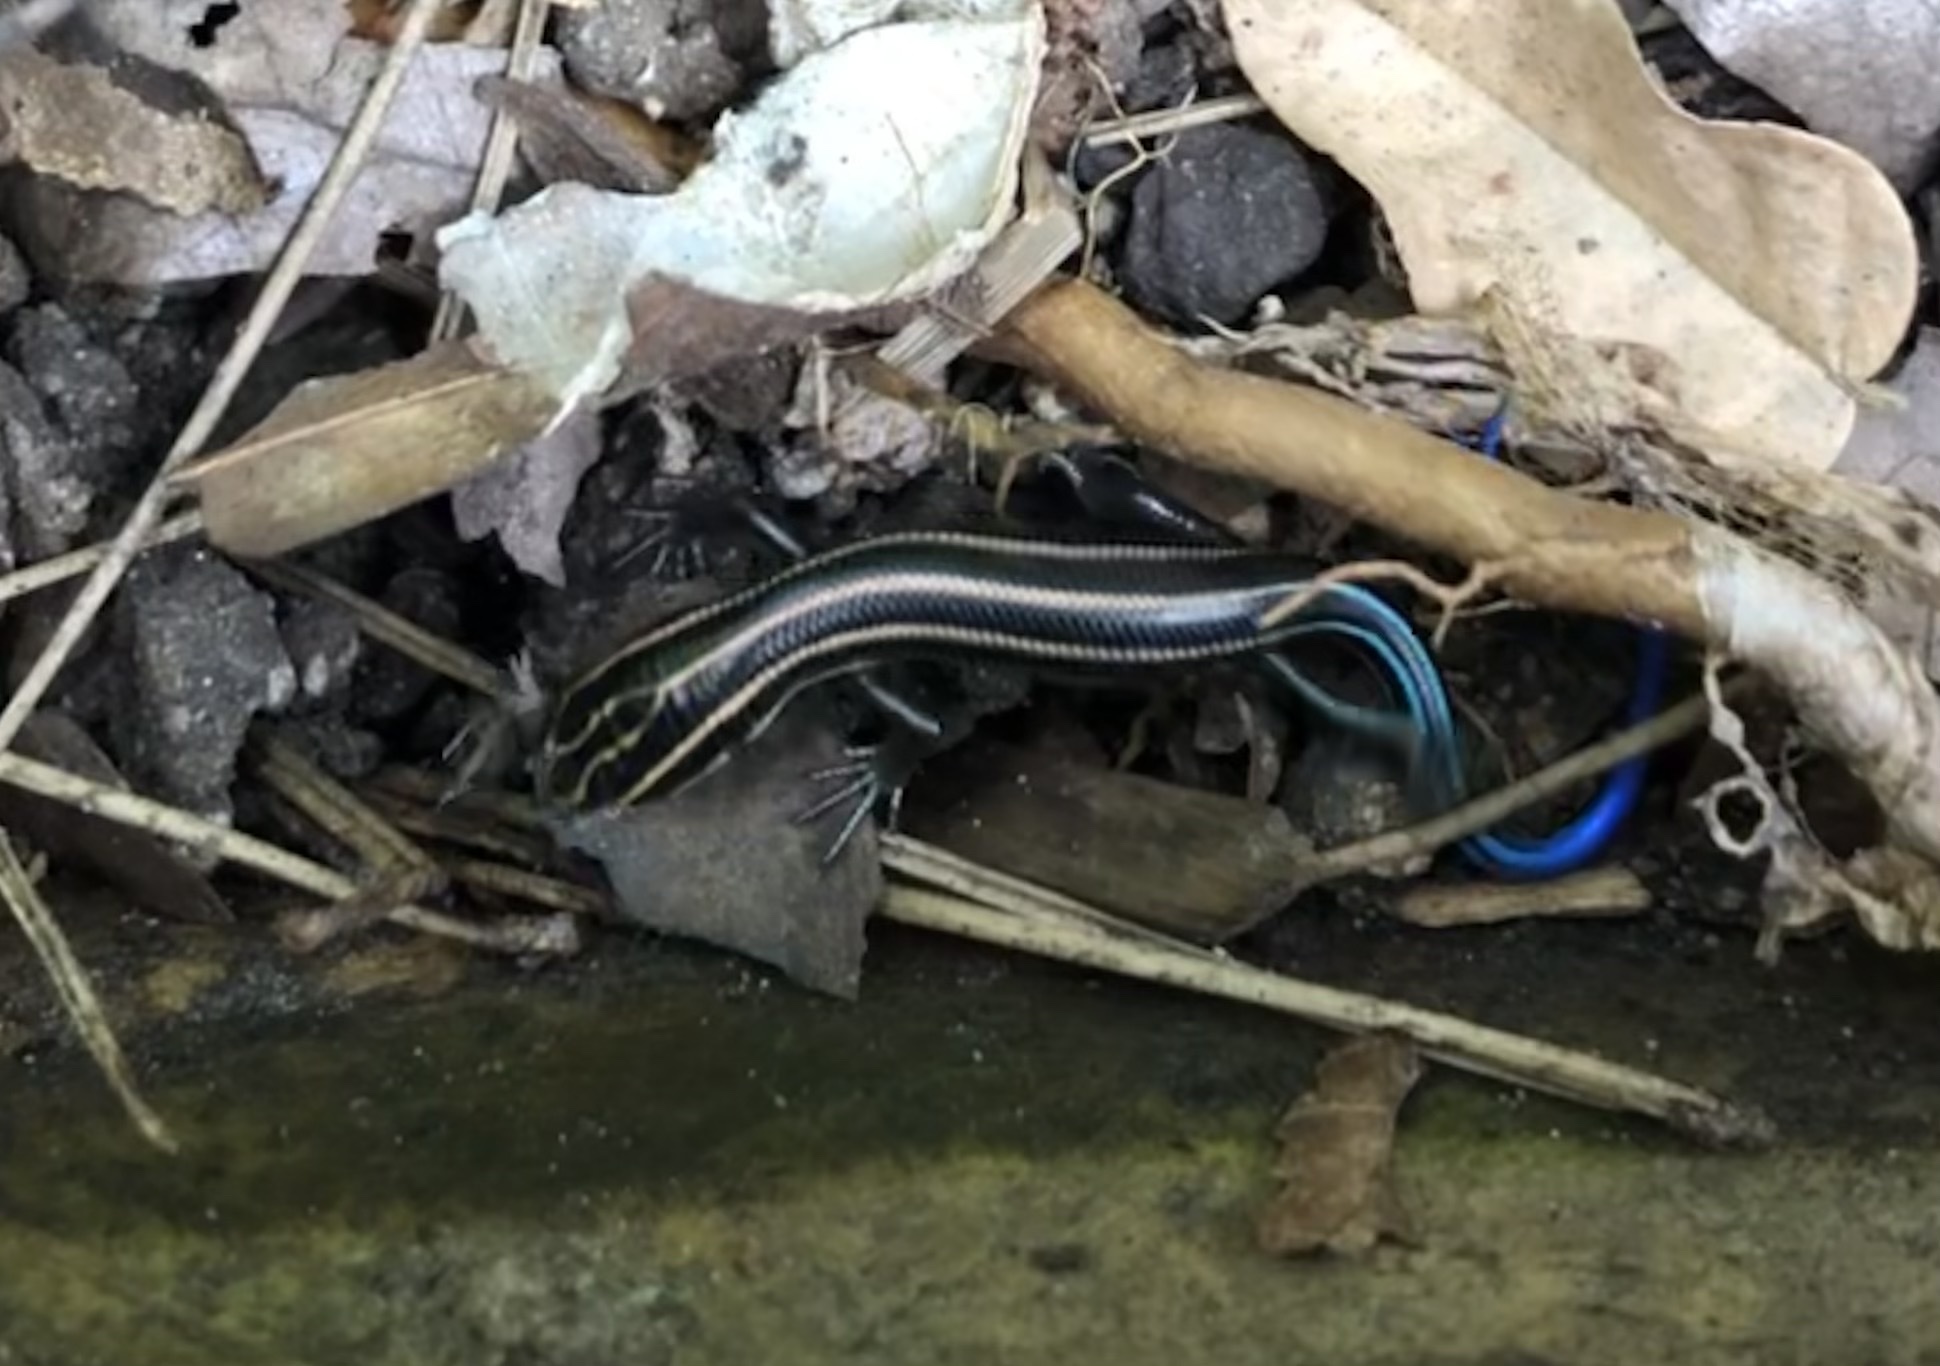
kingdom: Animalia
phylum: Chordata
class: Squamata
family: Scincidae
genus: Plestiodon
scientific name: Plestiodon fasciatus
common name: Five-lined skink
